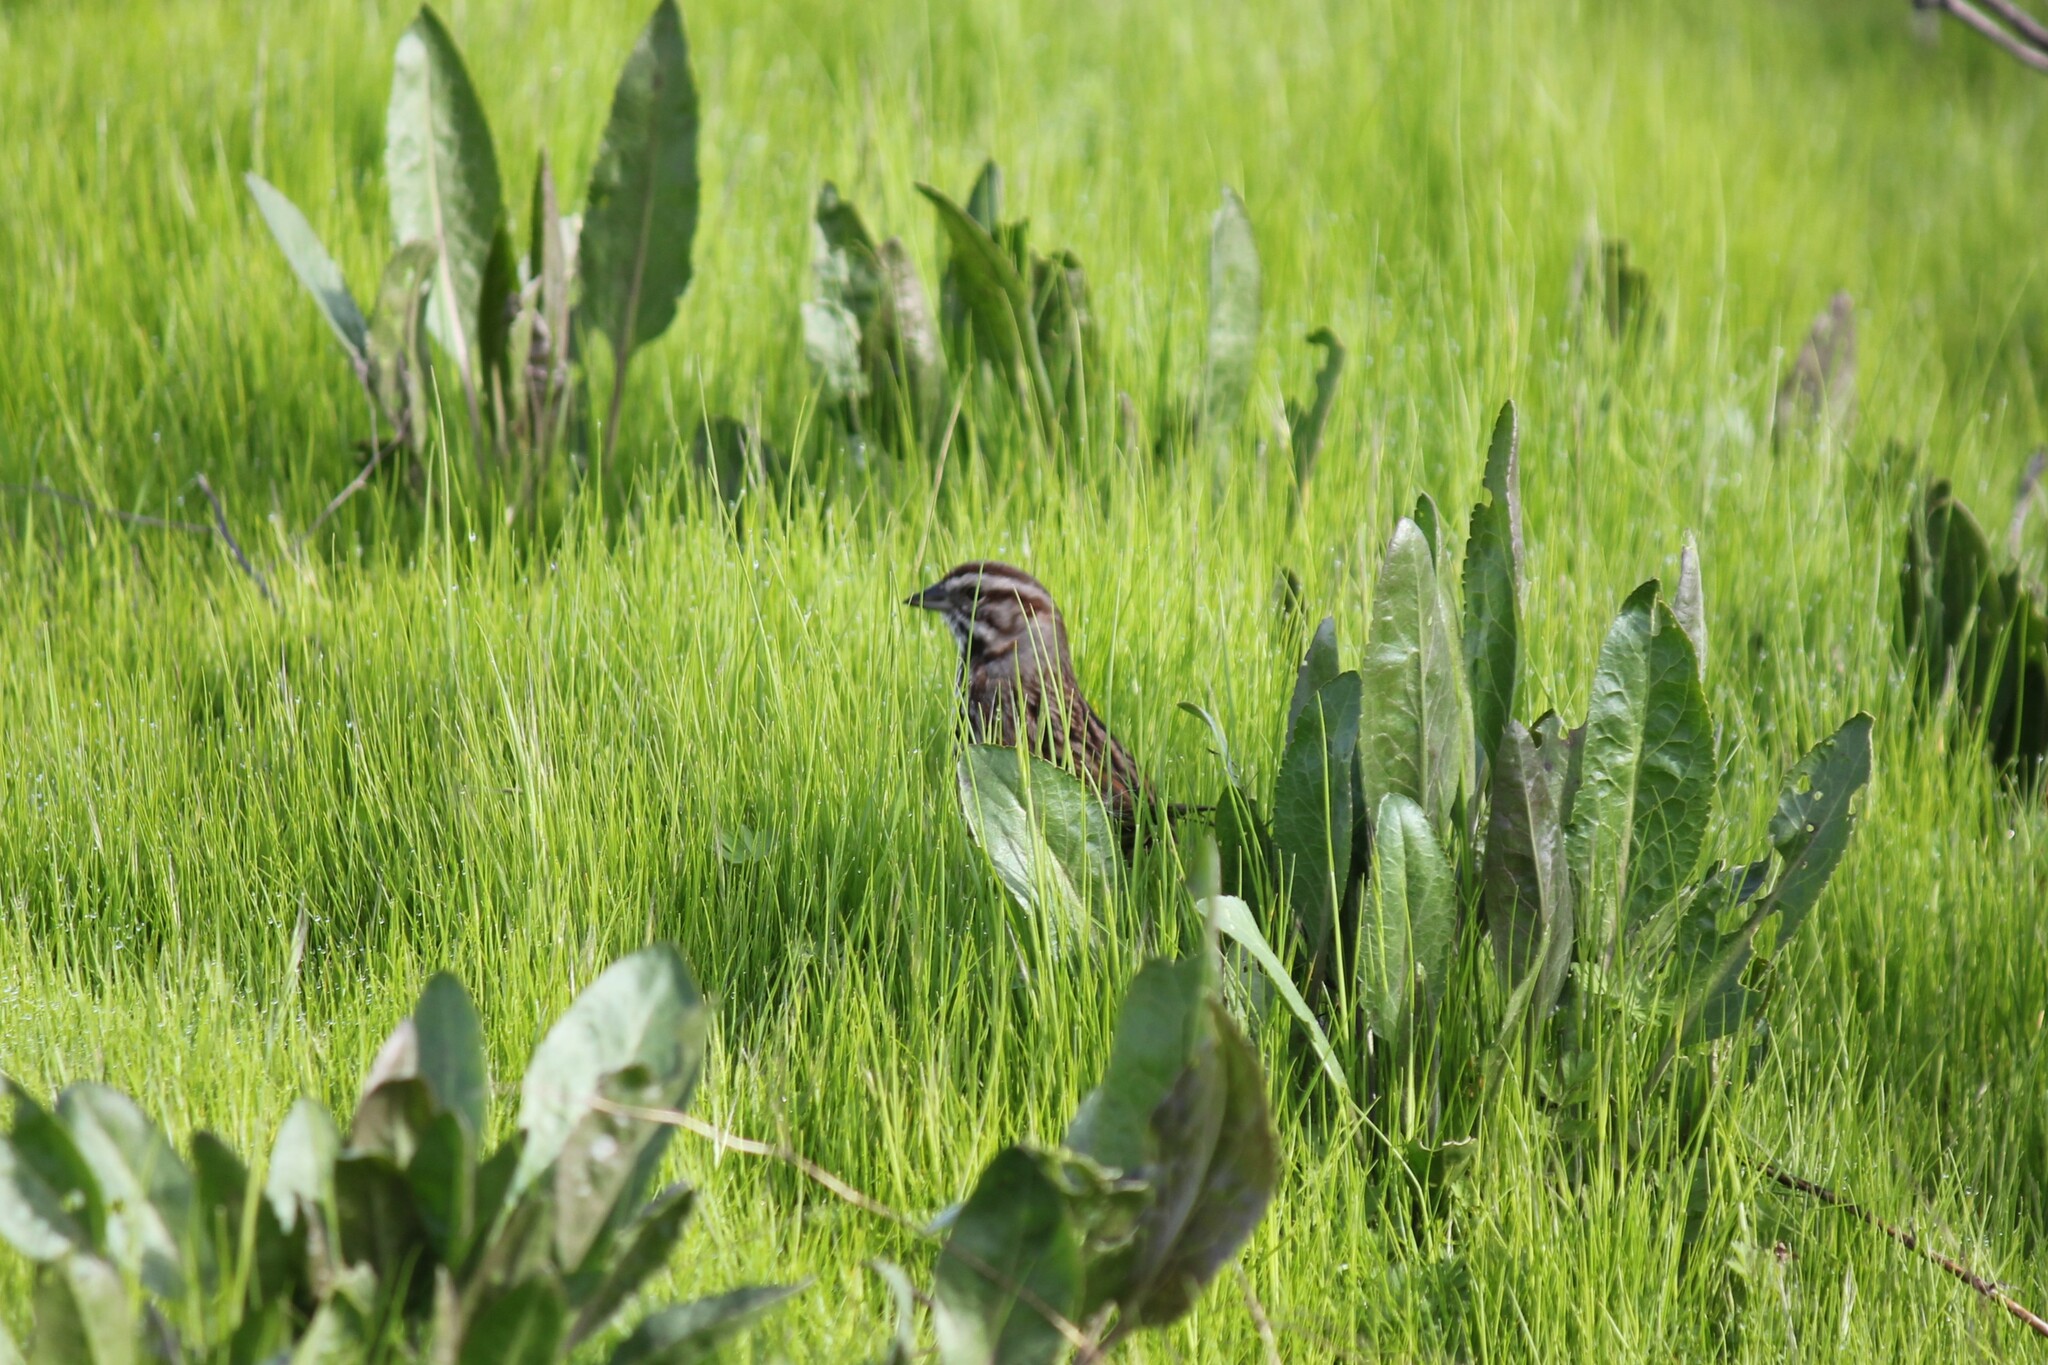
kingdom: Animalia
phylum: Chordata
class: Aves
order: Passeriformes
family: Passerellidae
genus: Melospiza
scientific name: Melospiza melodia
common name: Song sparrow
